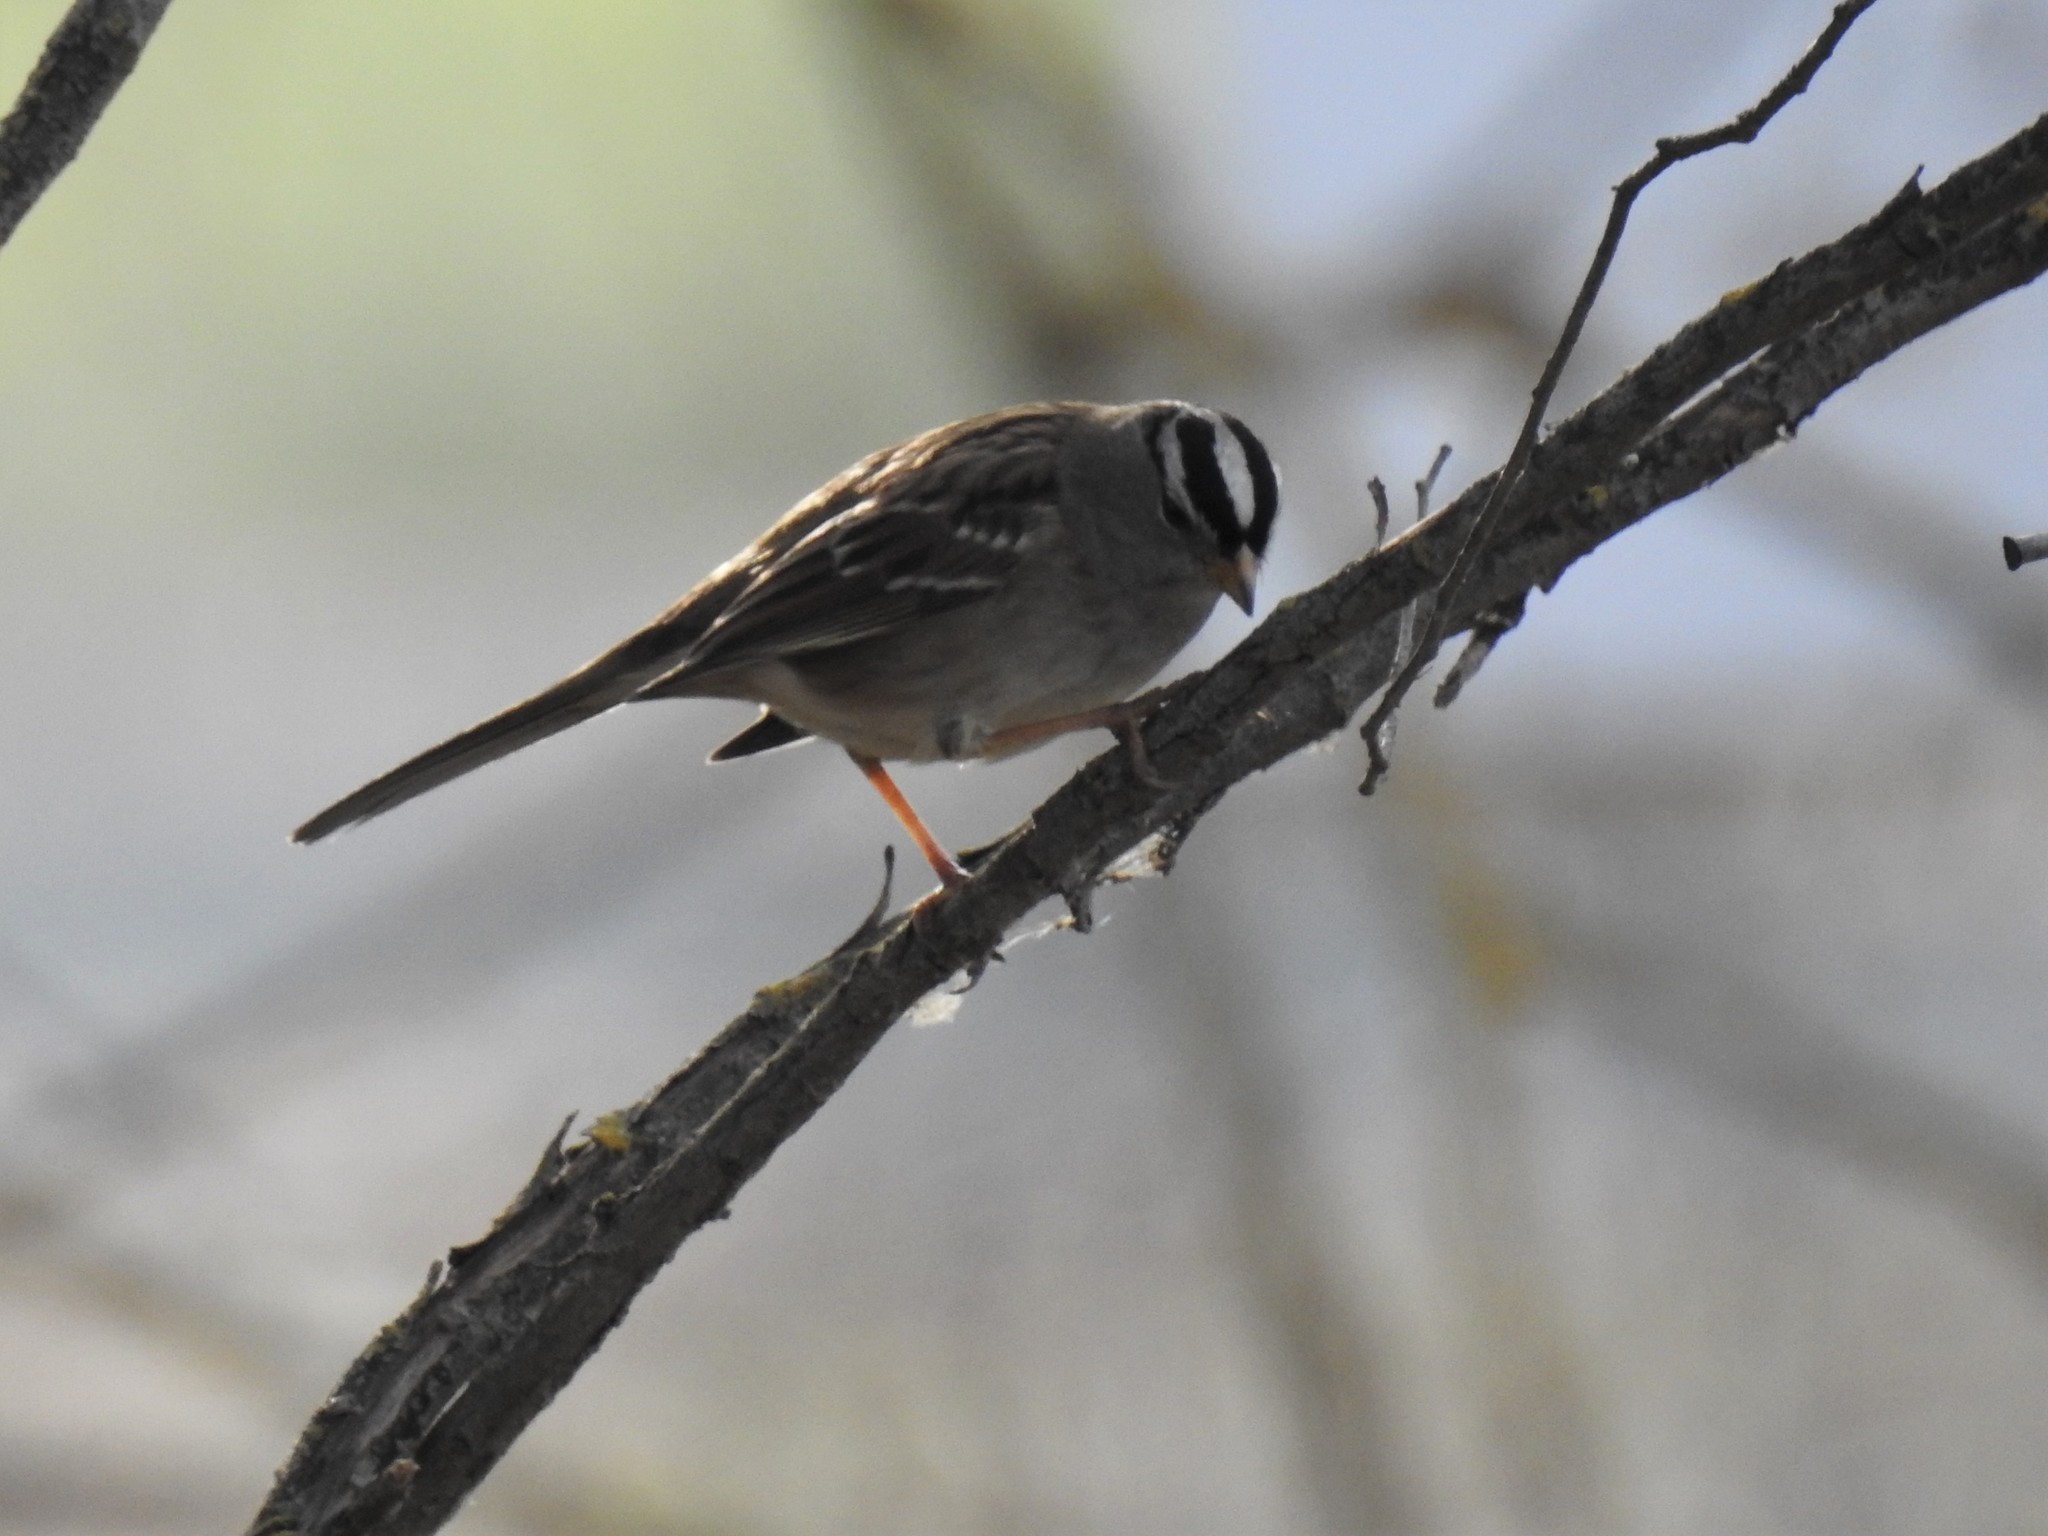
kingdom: Animalia
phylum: Chordata
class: Aves
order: Passeriformes
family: Passerellidae
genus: Zonotrichia
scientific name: Zonotrichia leucophrys
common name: White-crowned sparrow
